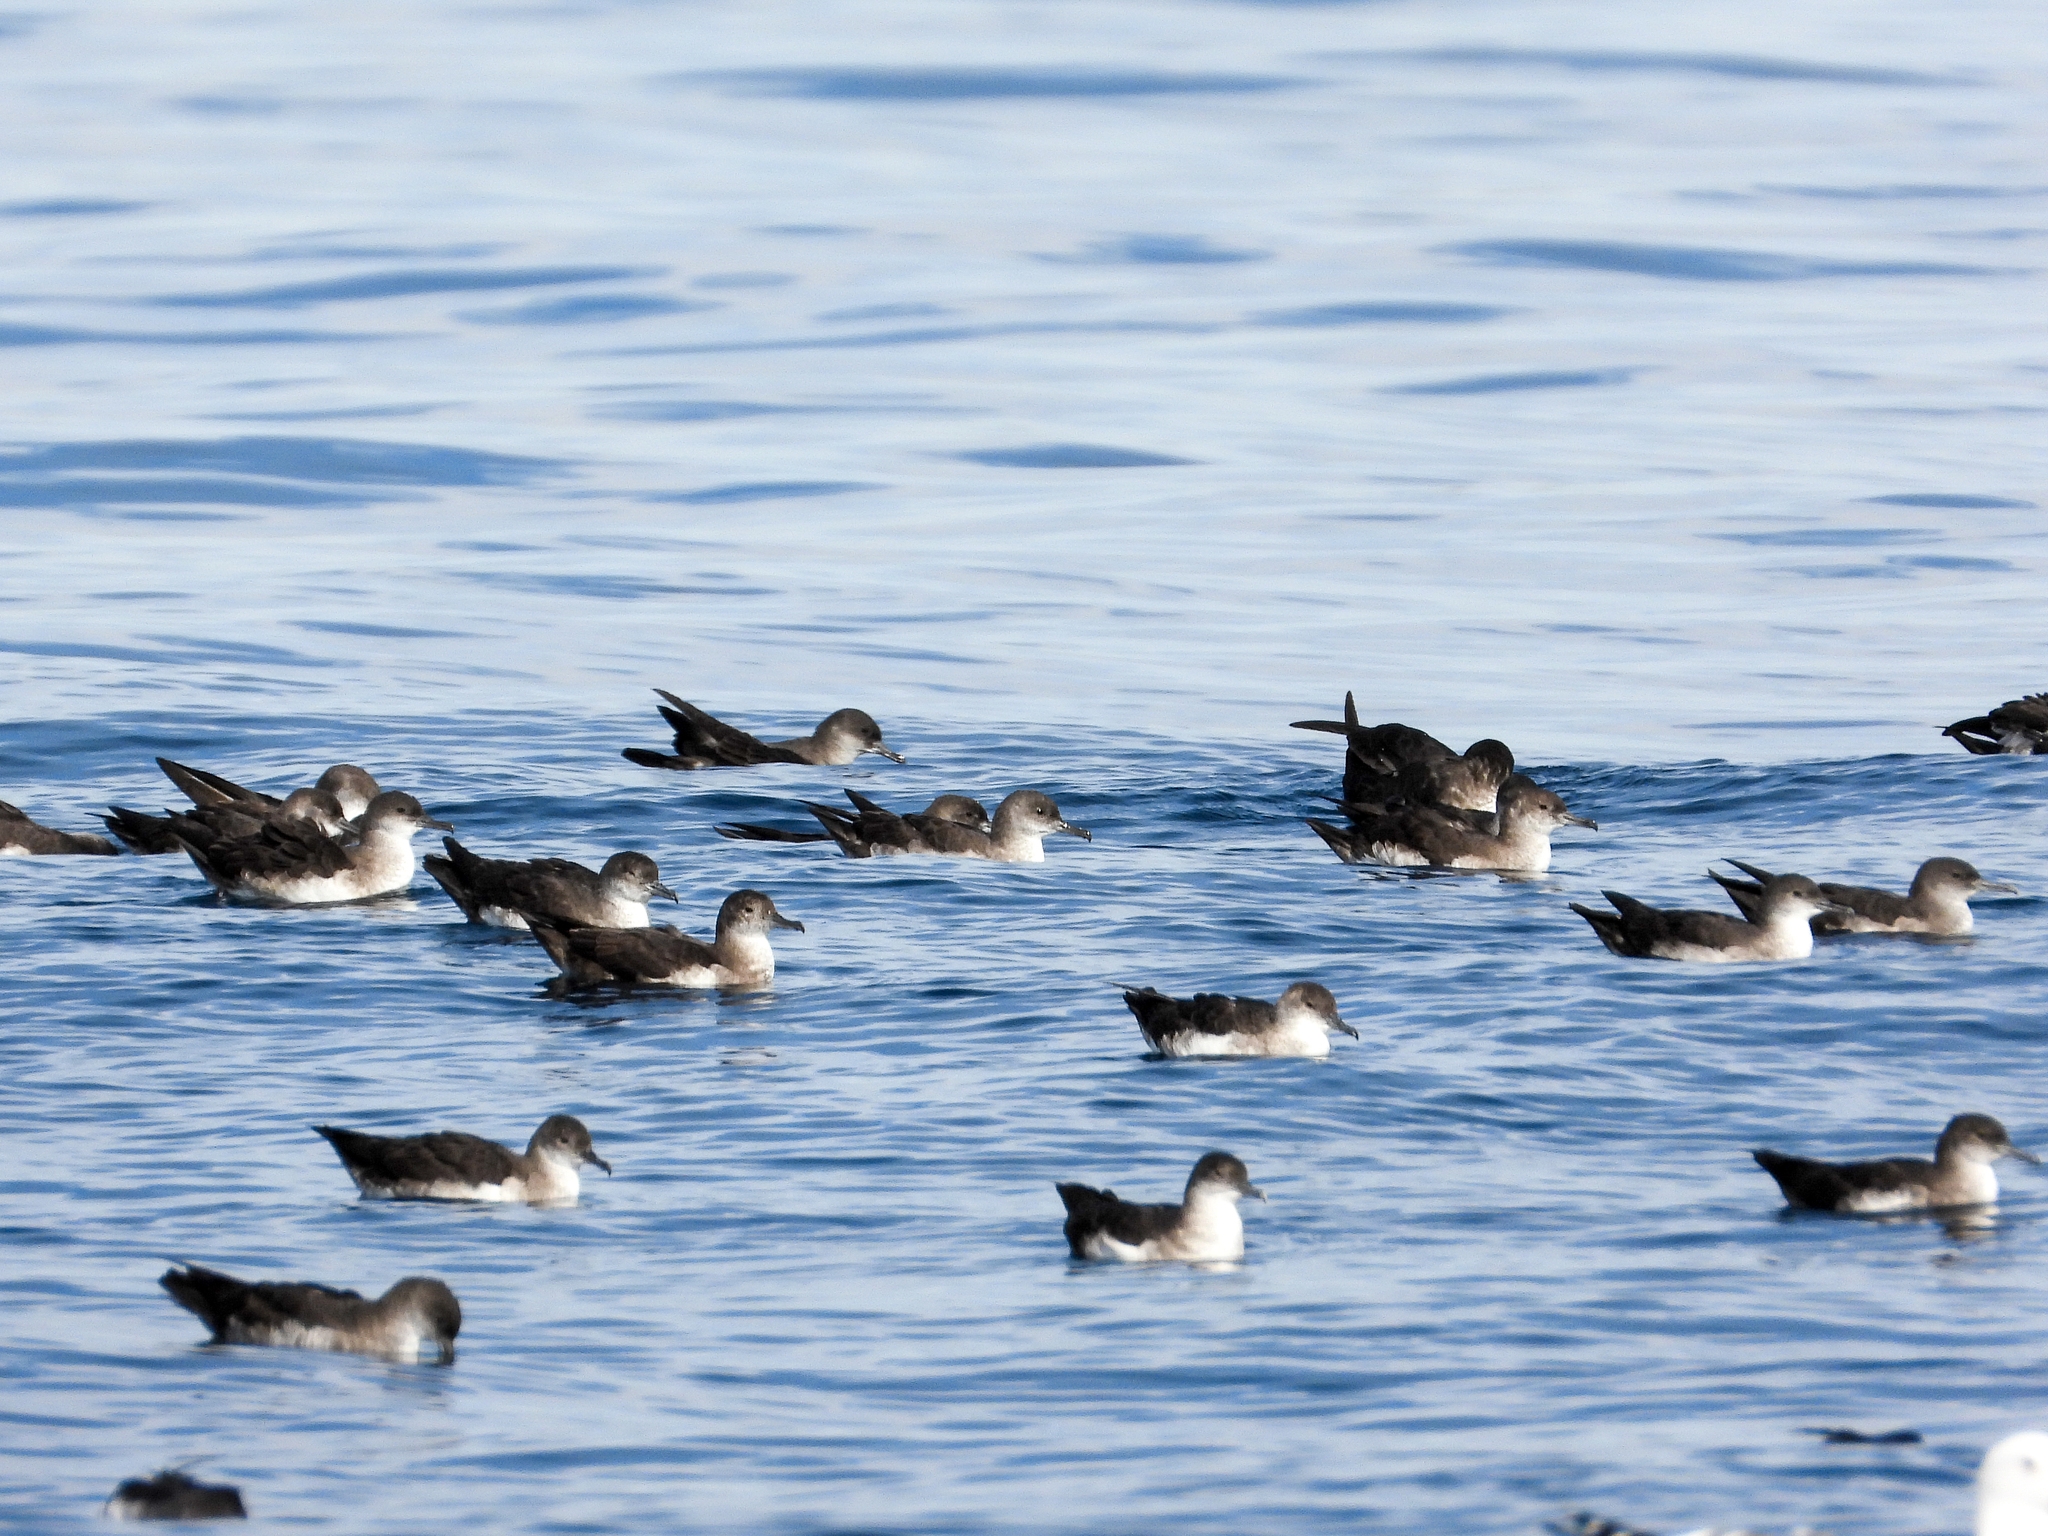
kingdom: Animalia
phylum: Chordata
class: Aves
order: Procellariiformes
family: Procellariidae
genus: Puffinus
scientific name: Puffinus opisthomelas
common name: Black-vented shearwater
